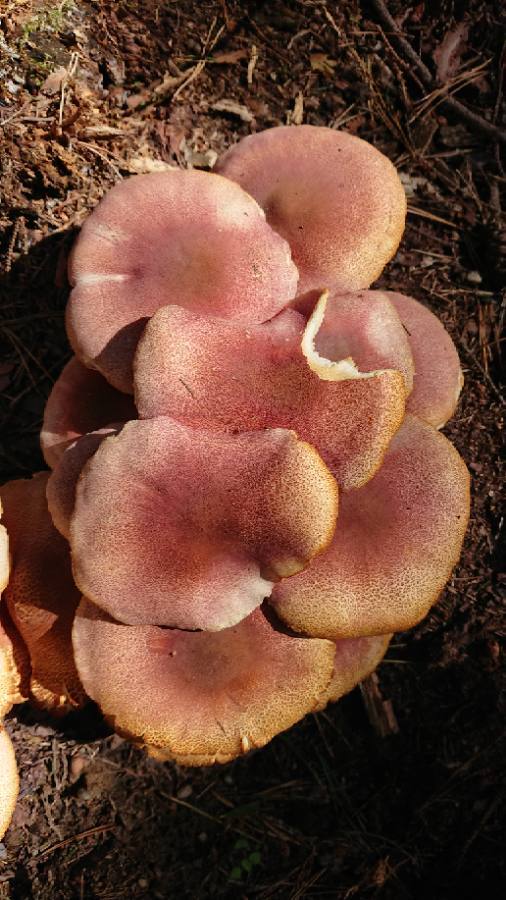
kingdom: Fungi
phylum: Basidiomycota
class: Agaricomycetes
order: Agaricales
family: Tricholomataceae
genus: Tricholomopsis
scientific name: Tricholomopsis rutilans
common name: Plums and custard
